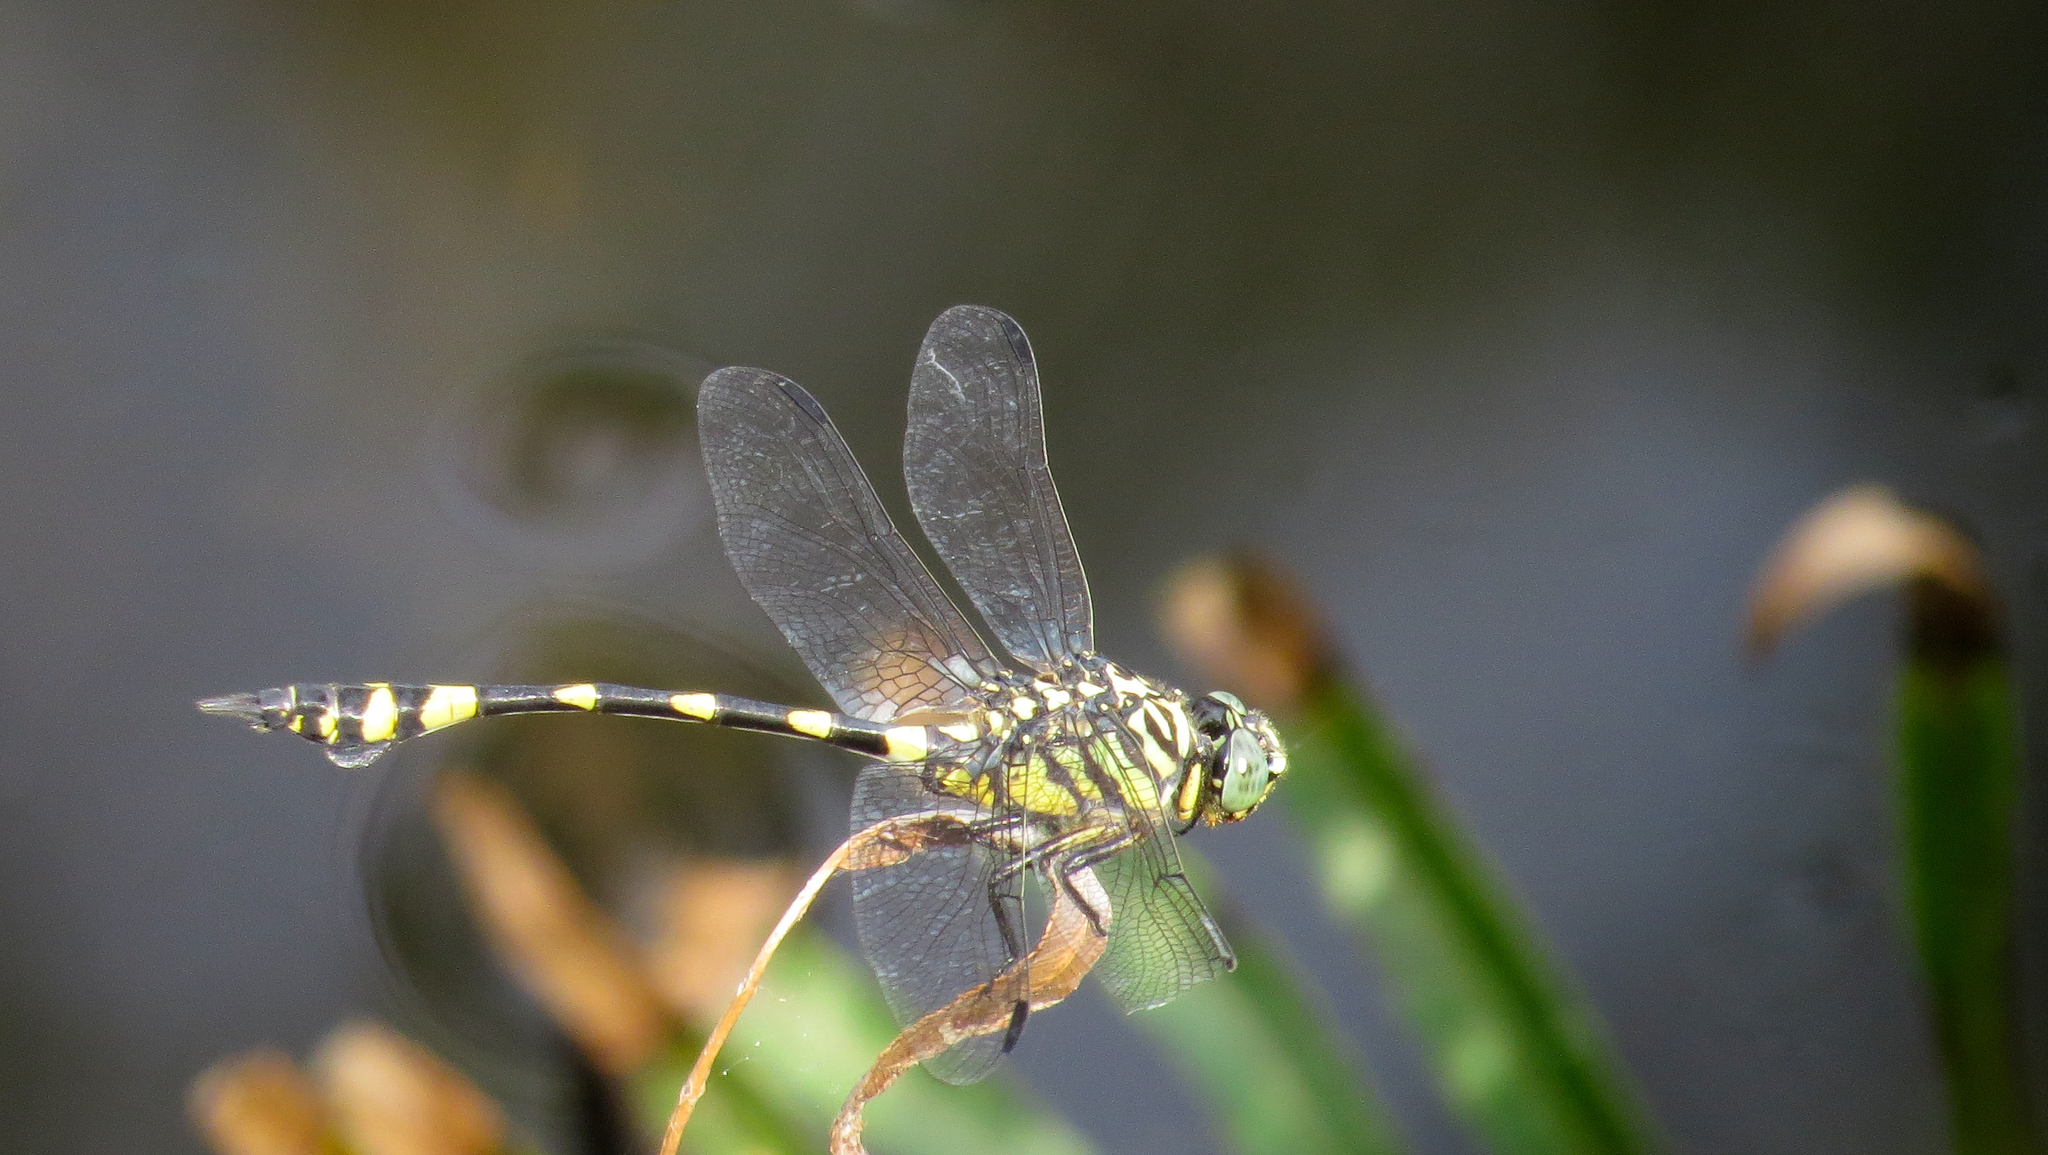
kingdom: Animalia
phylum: Arthropoda
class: Insecta
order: Odonata
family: Gomphidae
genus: Ictinogomphus
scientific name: Ictinogomphus australis
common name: Australian tiger
